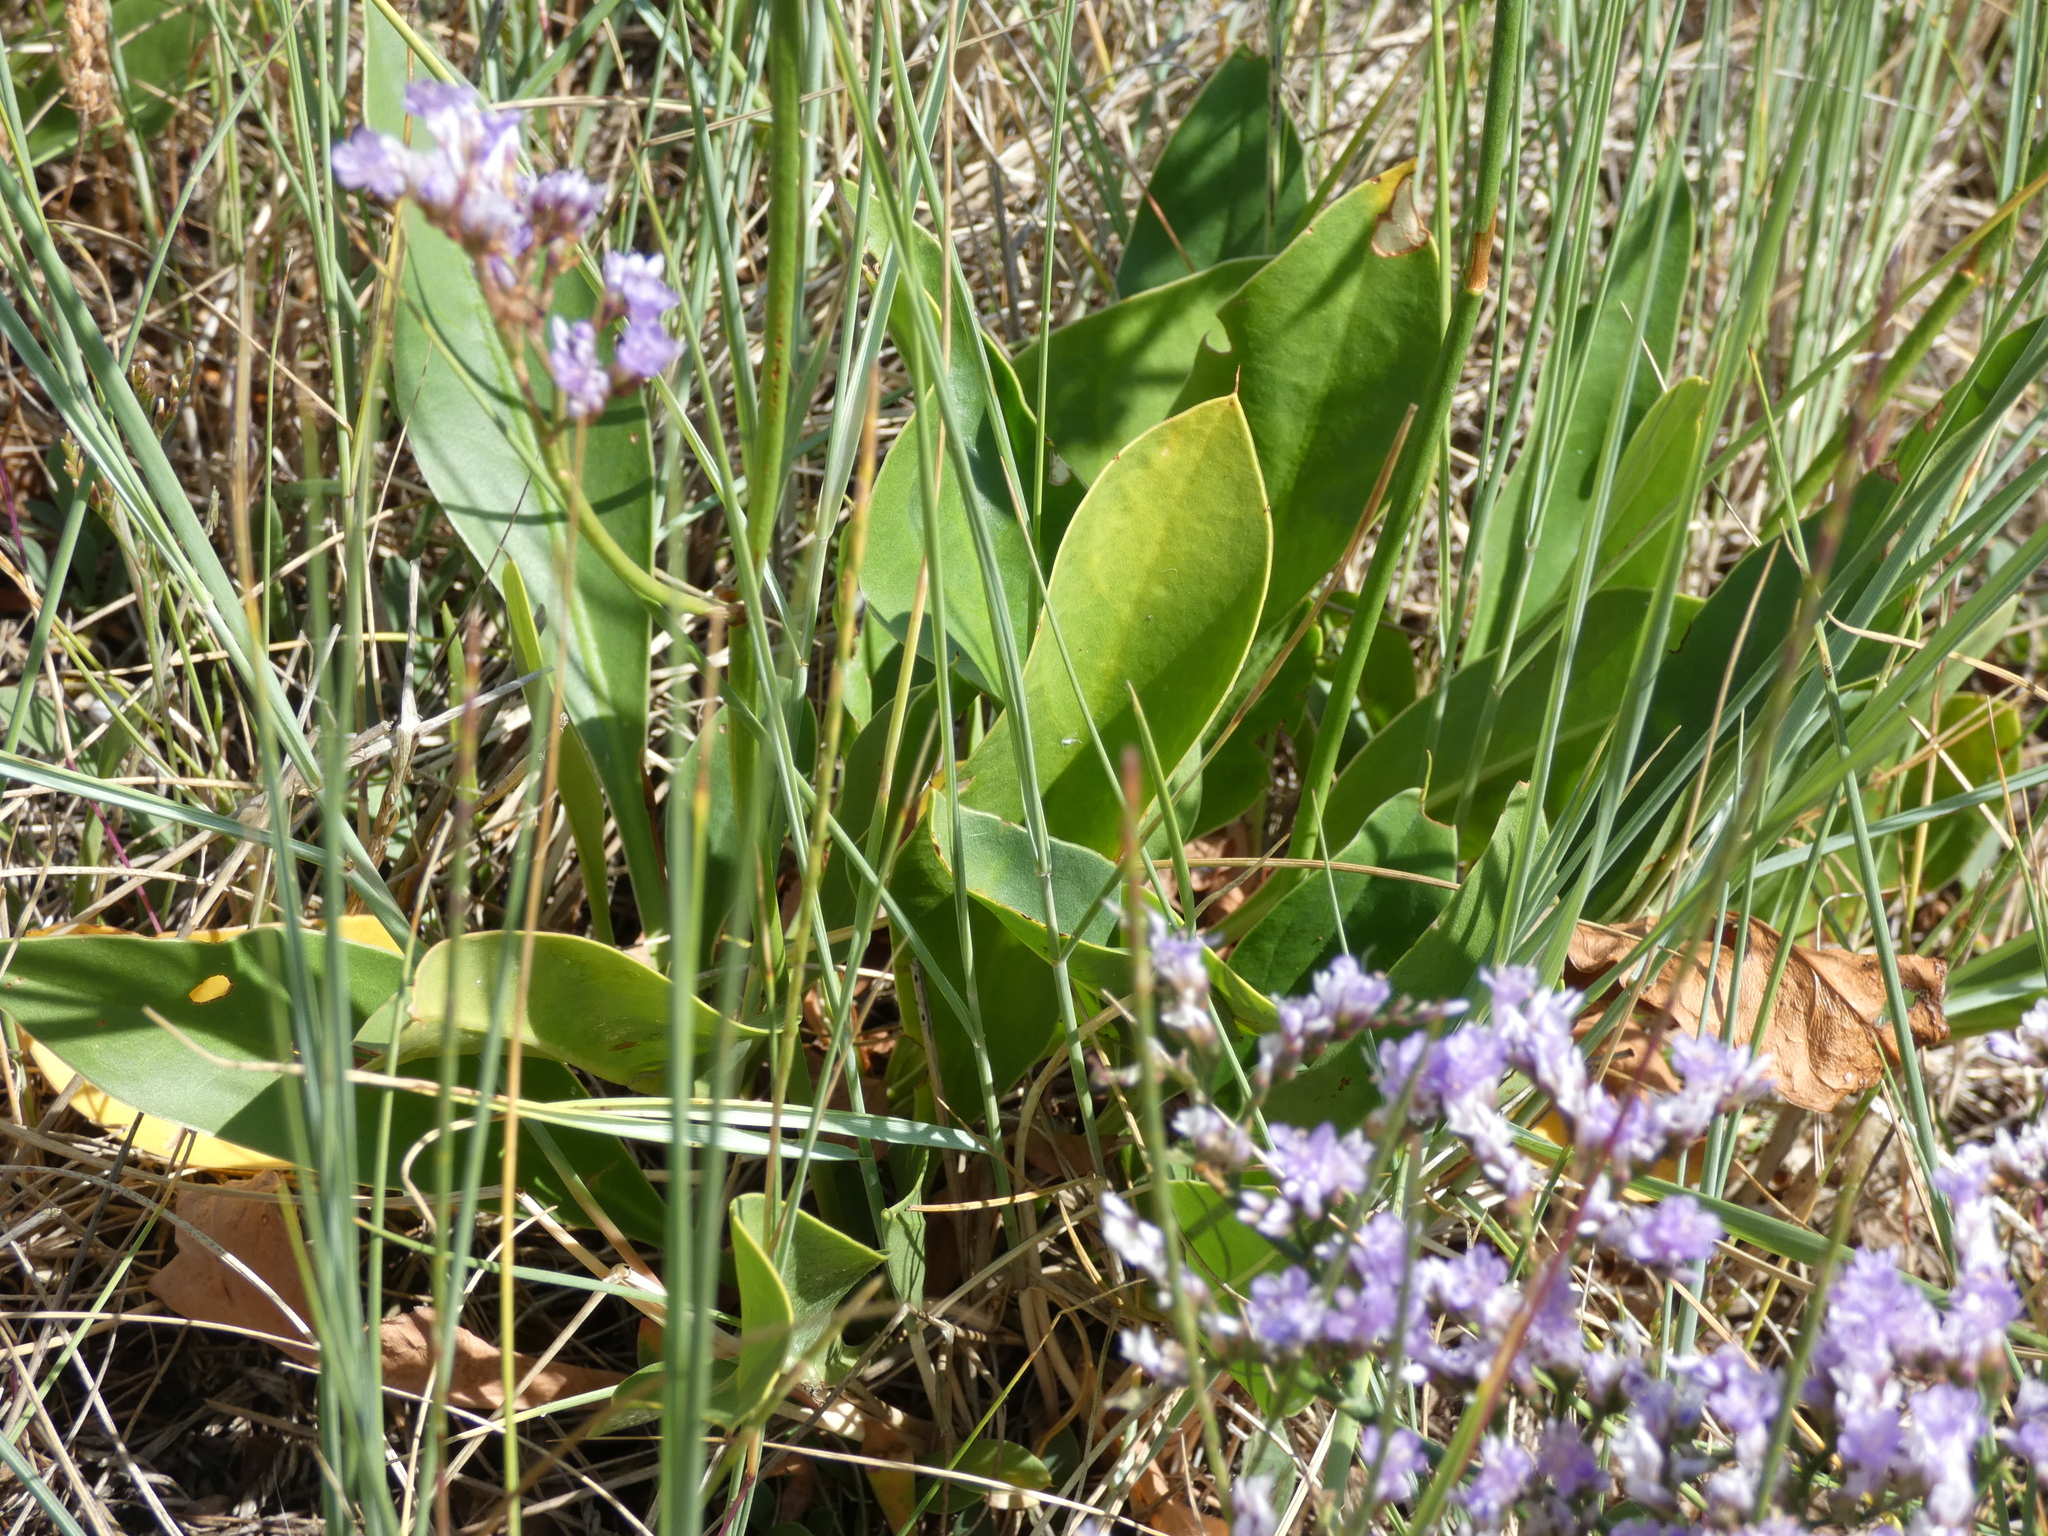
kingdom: Plantae
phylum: Tracheophyta
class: Magnoliopsida
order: Caryophyllales
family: Plumbaginaceae
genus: Limonium
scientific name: Limonium vulgare
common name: Common sea-lavender
